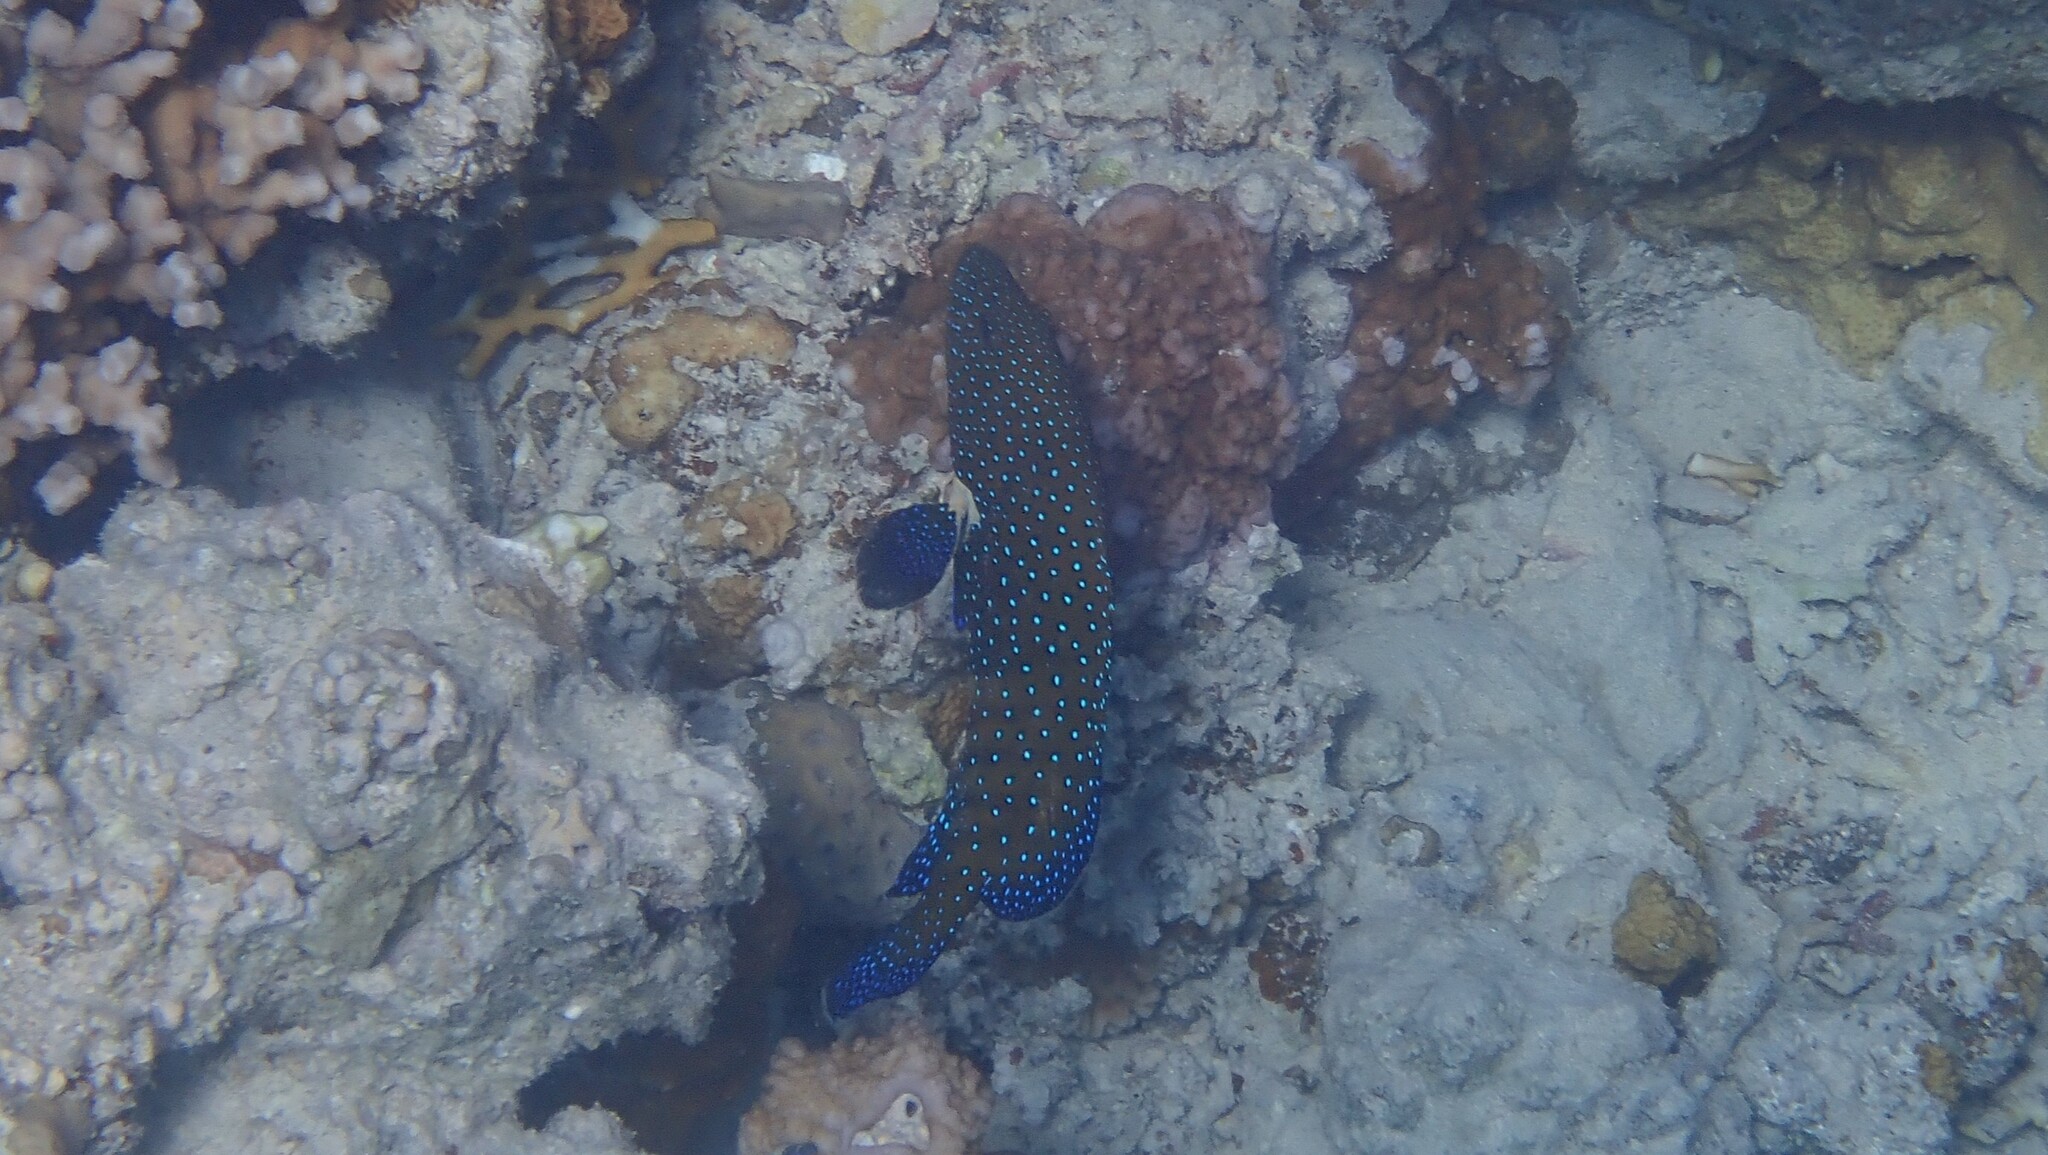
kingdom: Animalia
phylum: Chordata
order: Perciformes
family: Serranidae
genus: Cephalopholis
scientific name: Cephalopholis argus
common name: Peacock grouper
